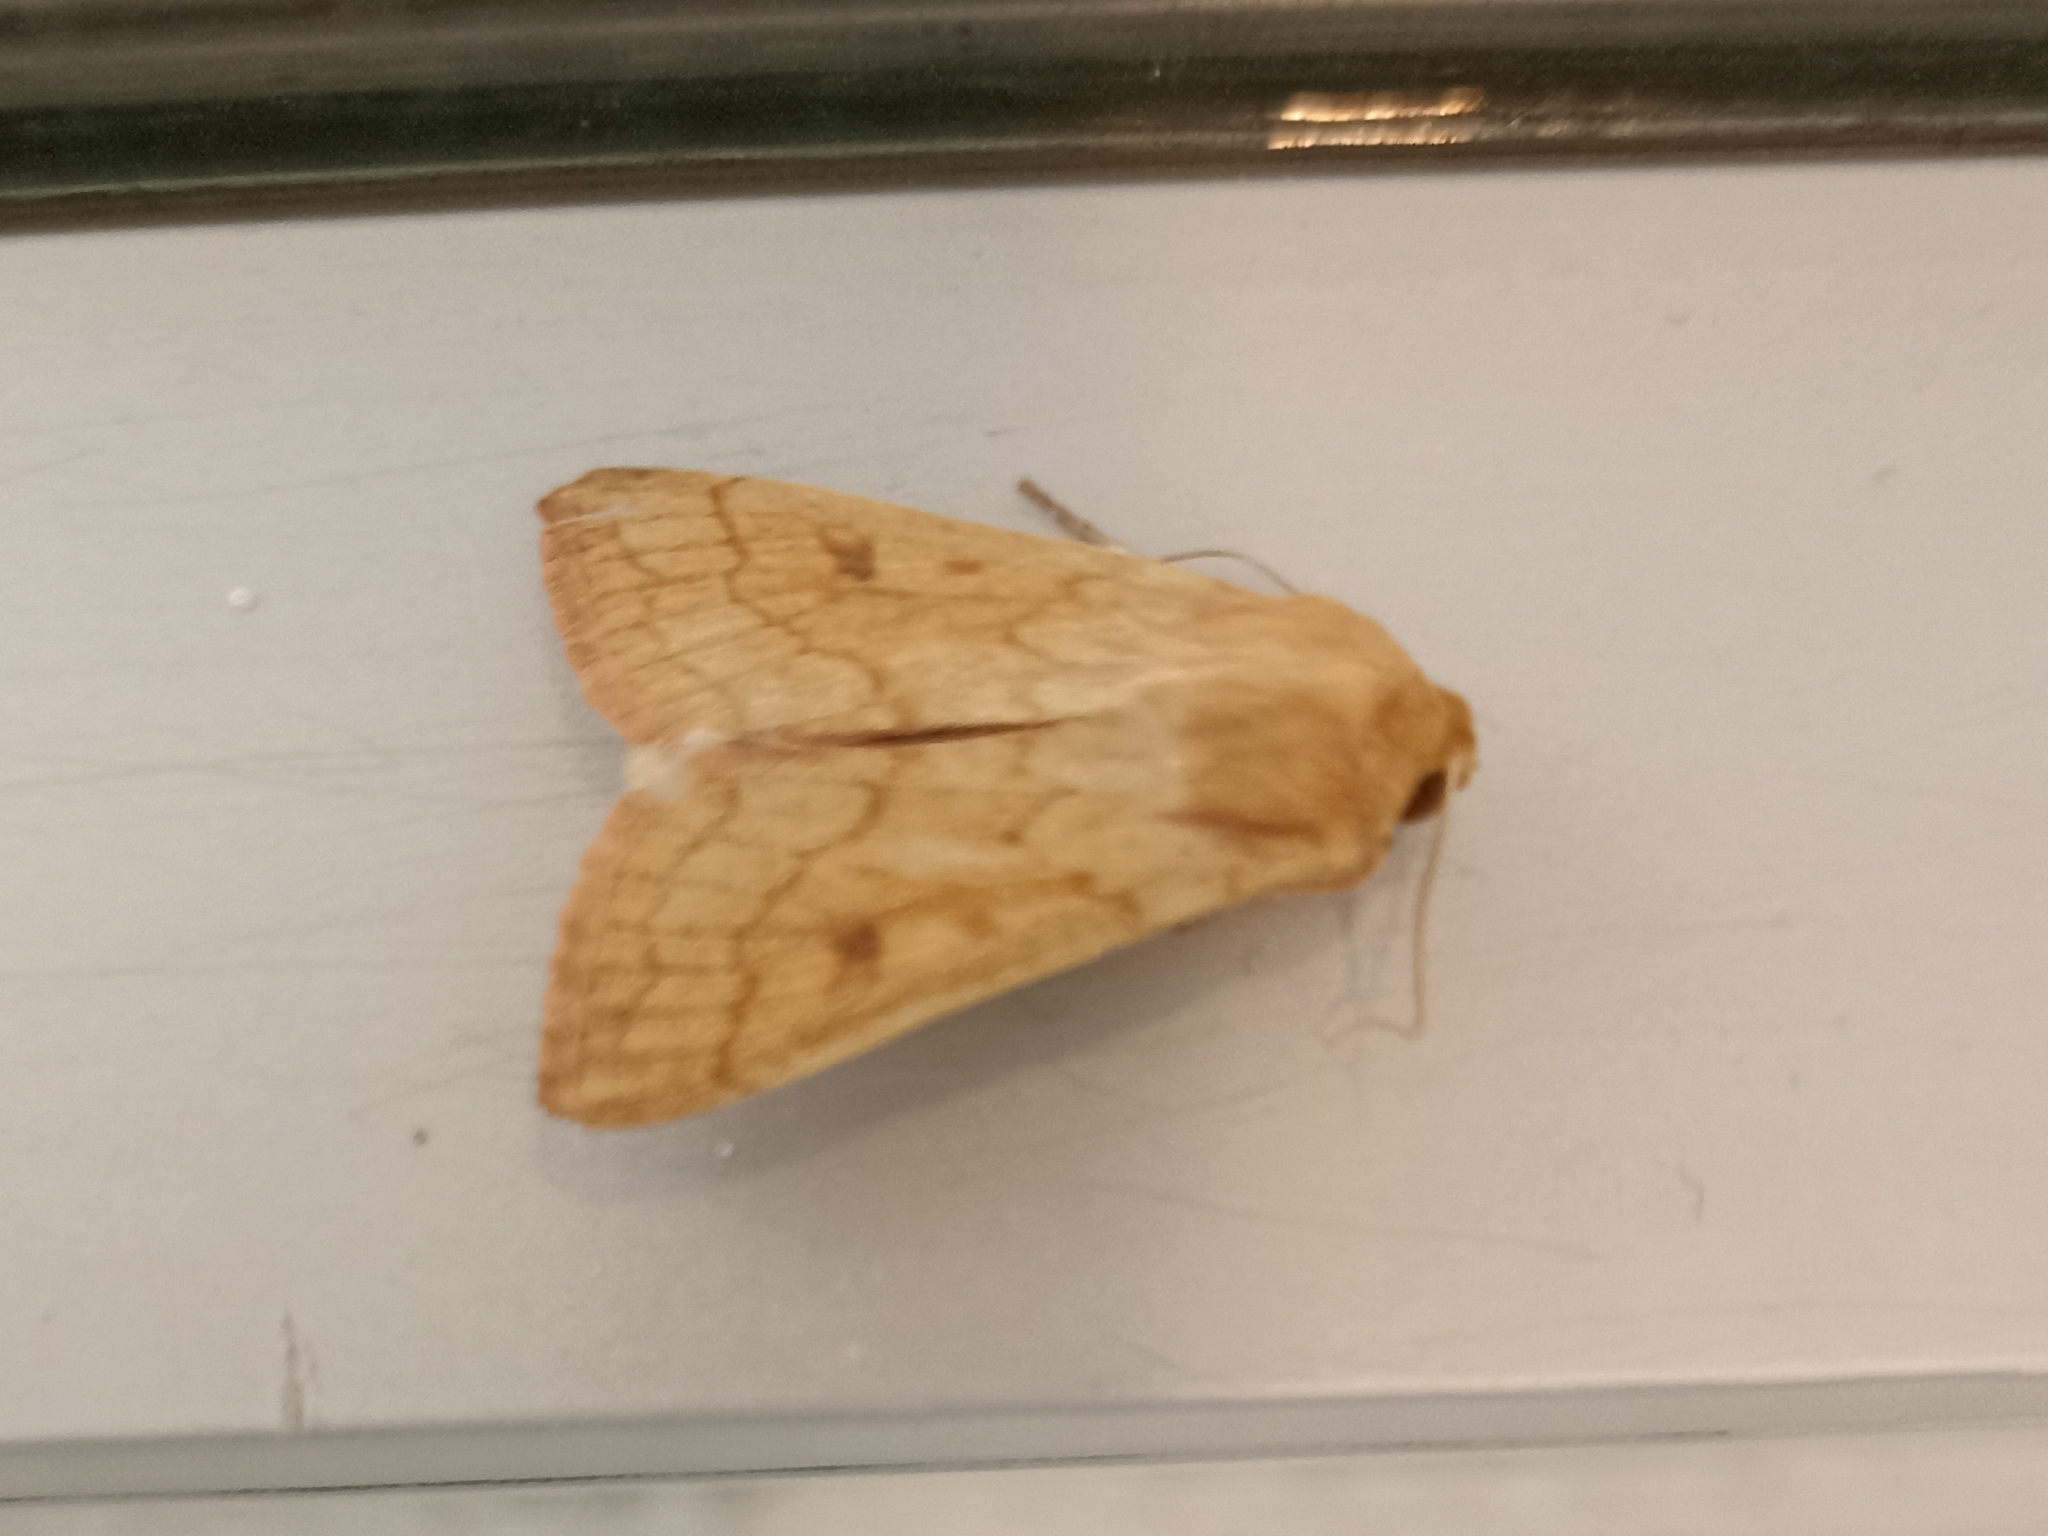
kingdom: Animalia
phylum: Arthropoda
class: Insecta
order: Lepidoptera
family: Noctuidae
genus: Mythimna
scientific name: Mythimna vitellina
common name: Delicate
